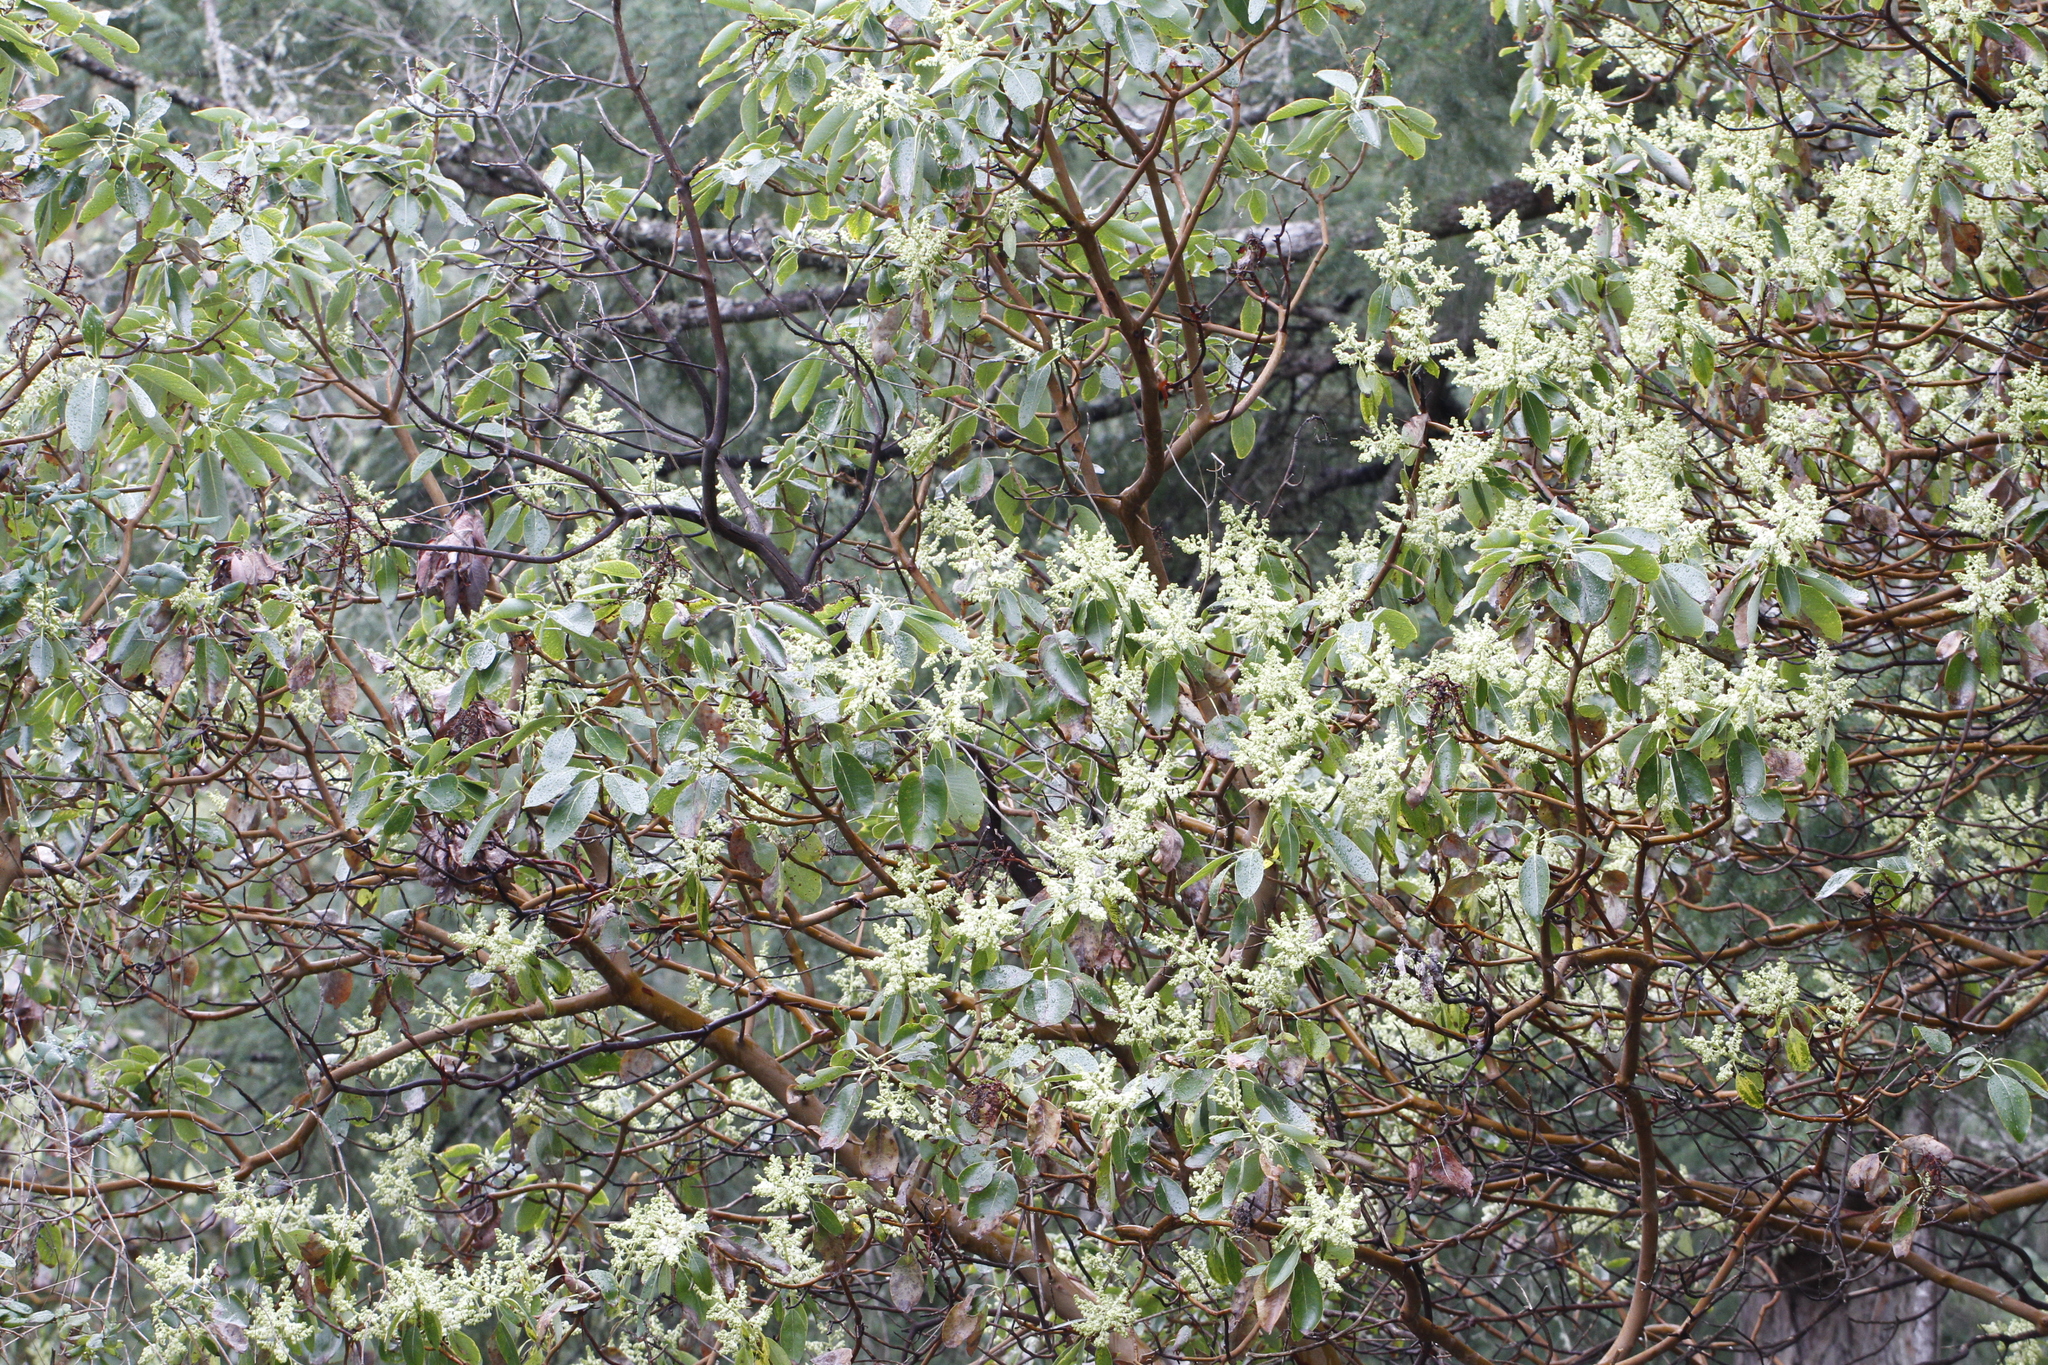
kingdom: Plantae
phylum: Tracheophyta
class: Magnoliopsida
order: Ericales
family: Ericaceae
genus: Arbutus
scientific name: Arbutus menziesii
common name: Pacific madrone
